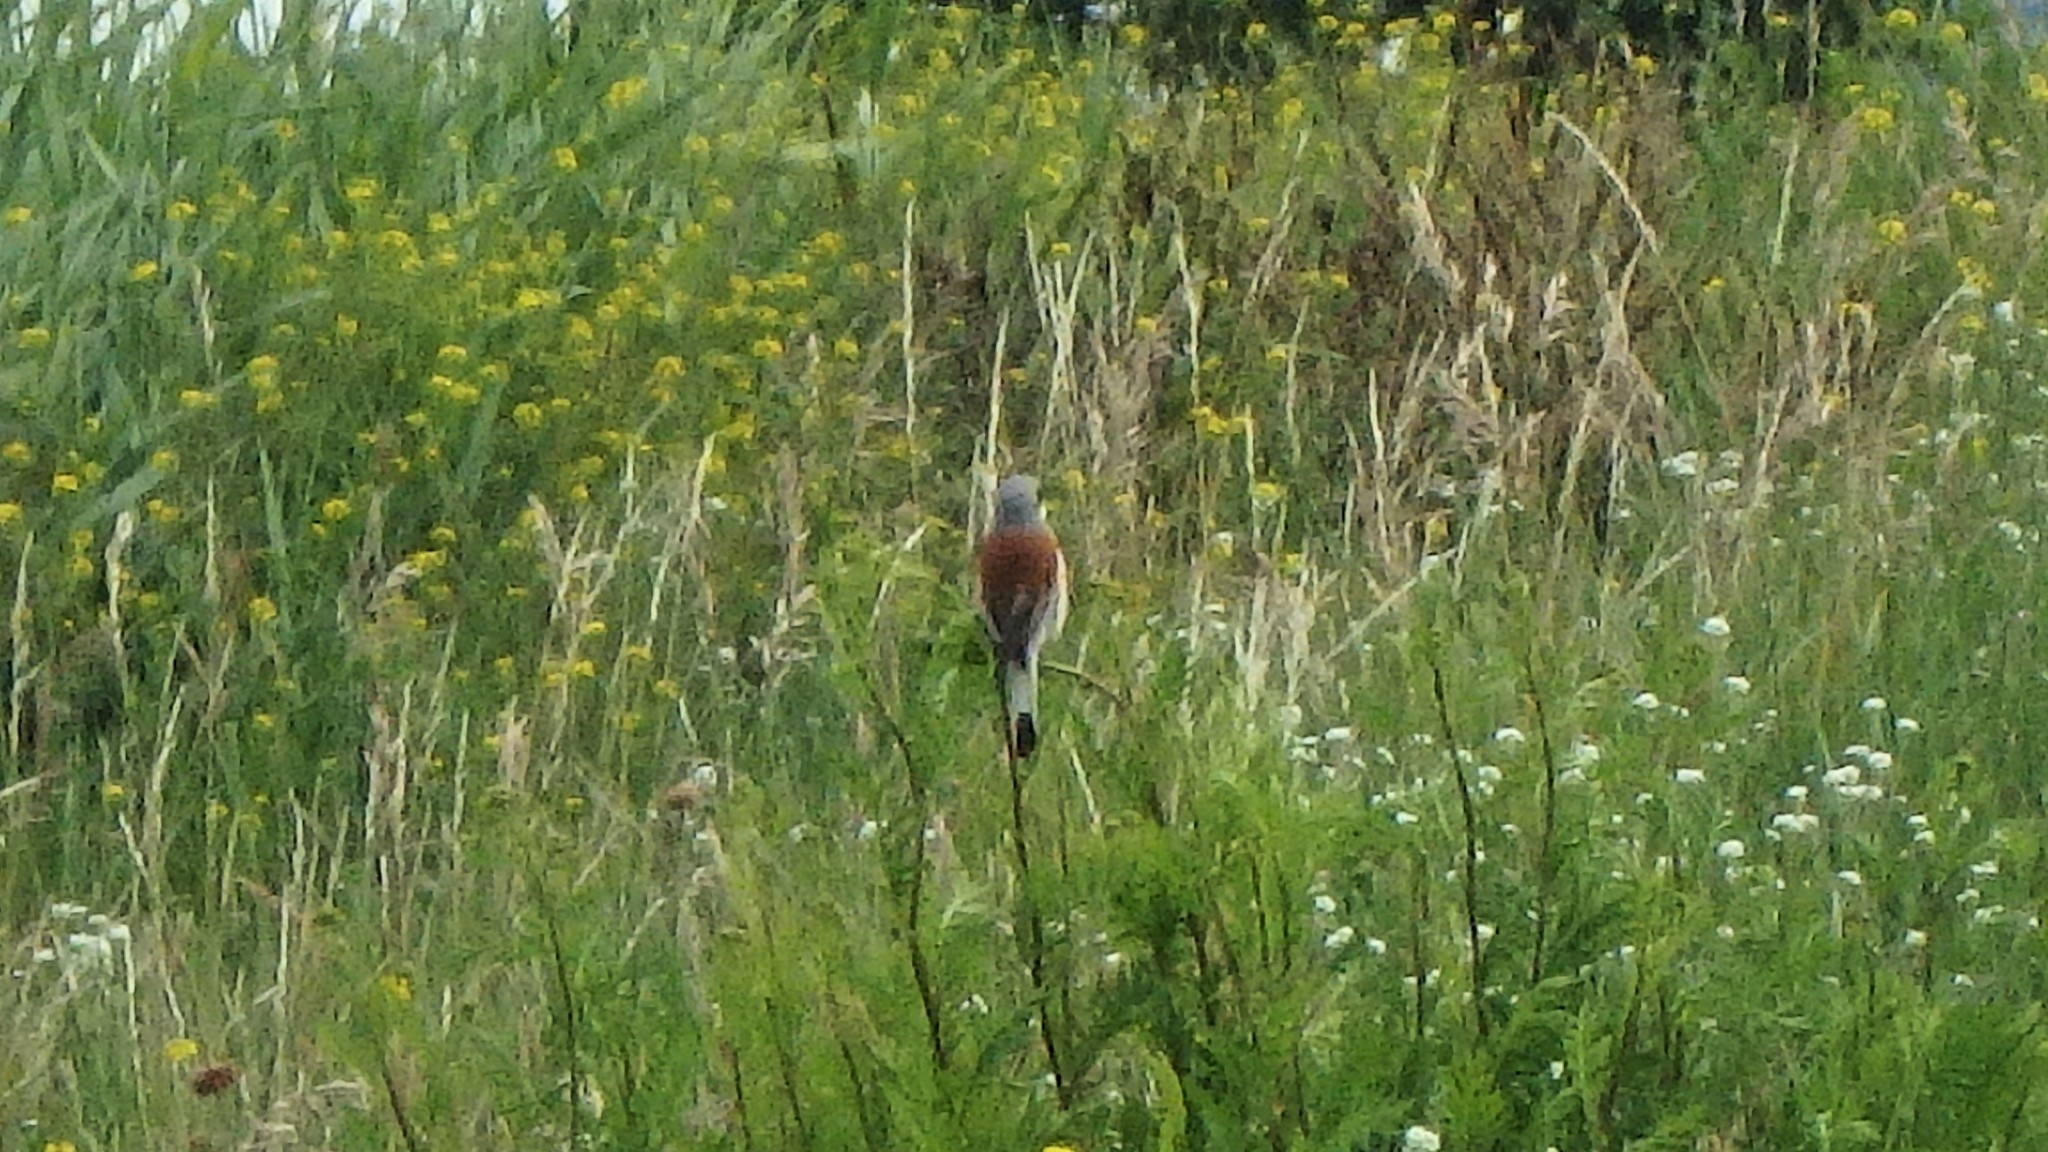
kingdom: Animalia
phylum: Chordata
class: Aves
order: Passeriformes
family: Laniidae
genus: Lanius
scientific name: Lanius collurio
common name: Red-backed shrike
